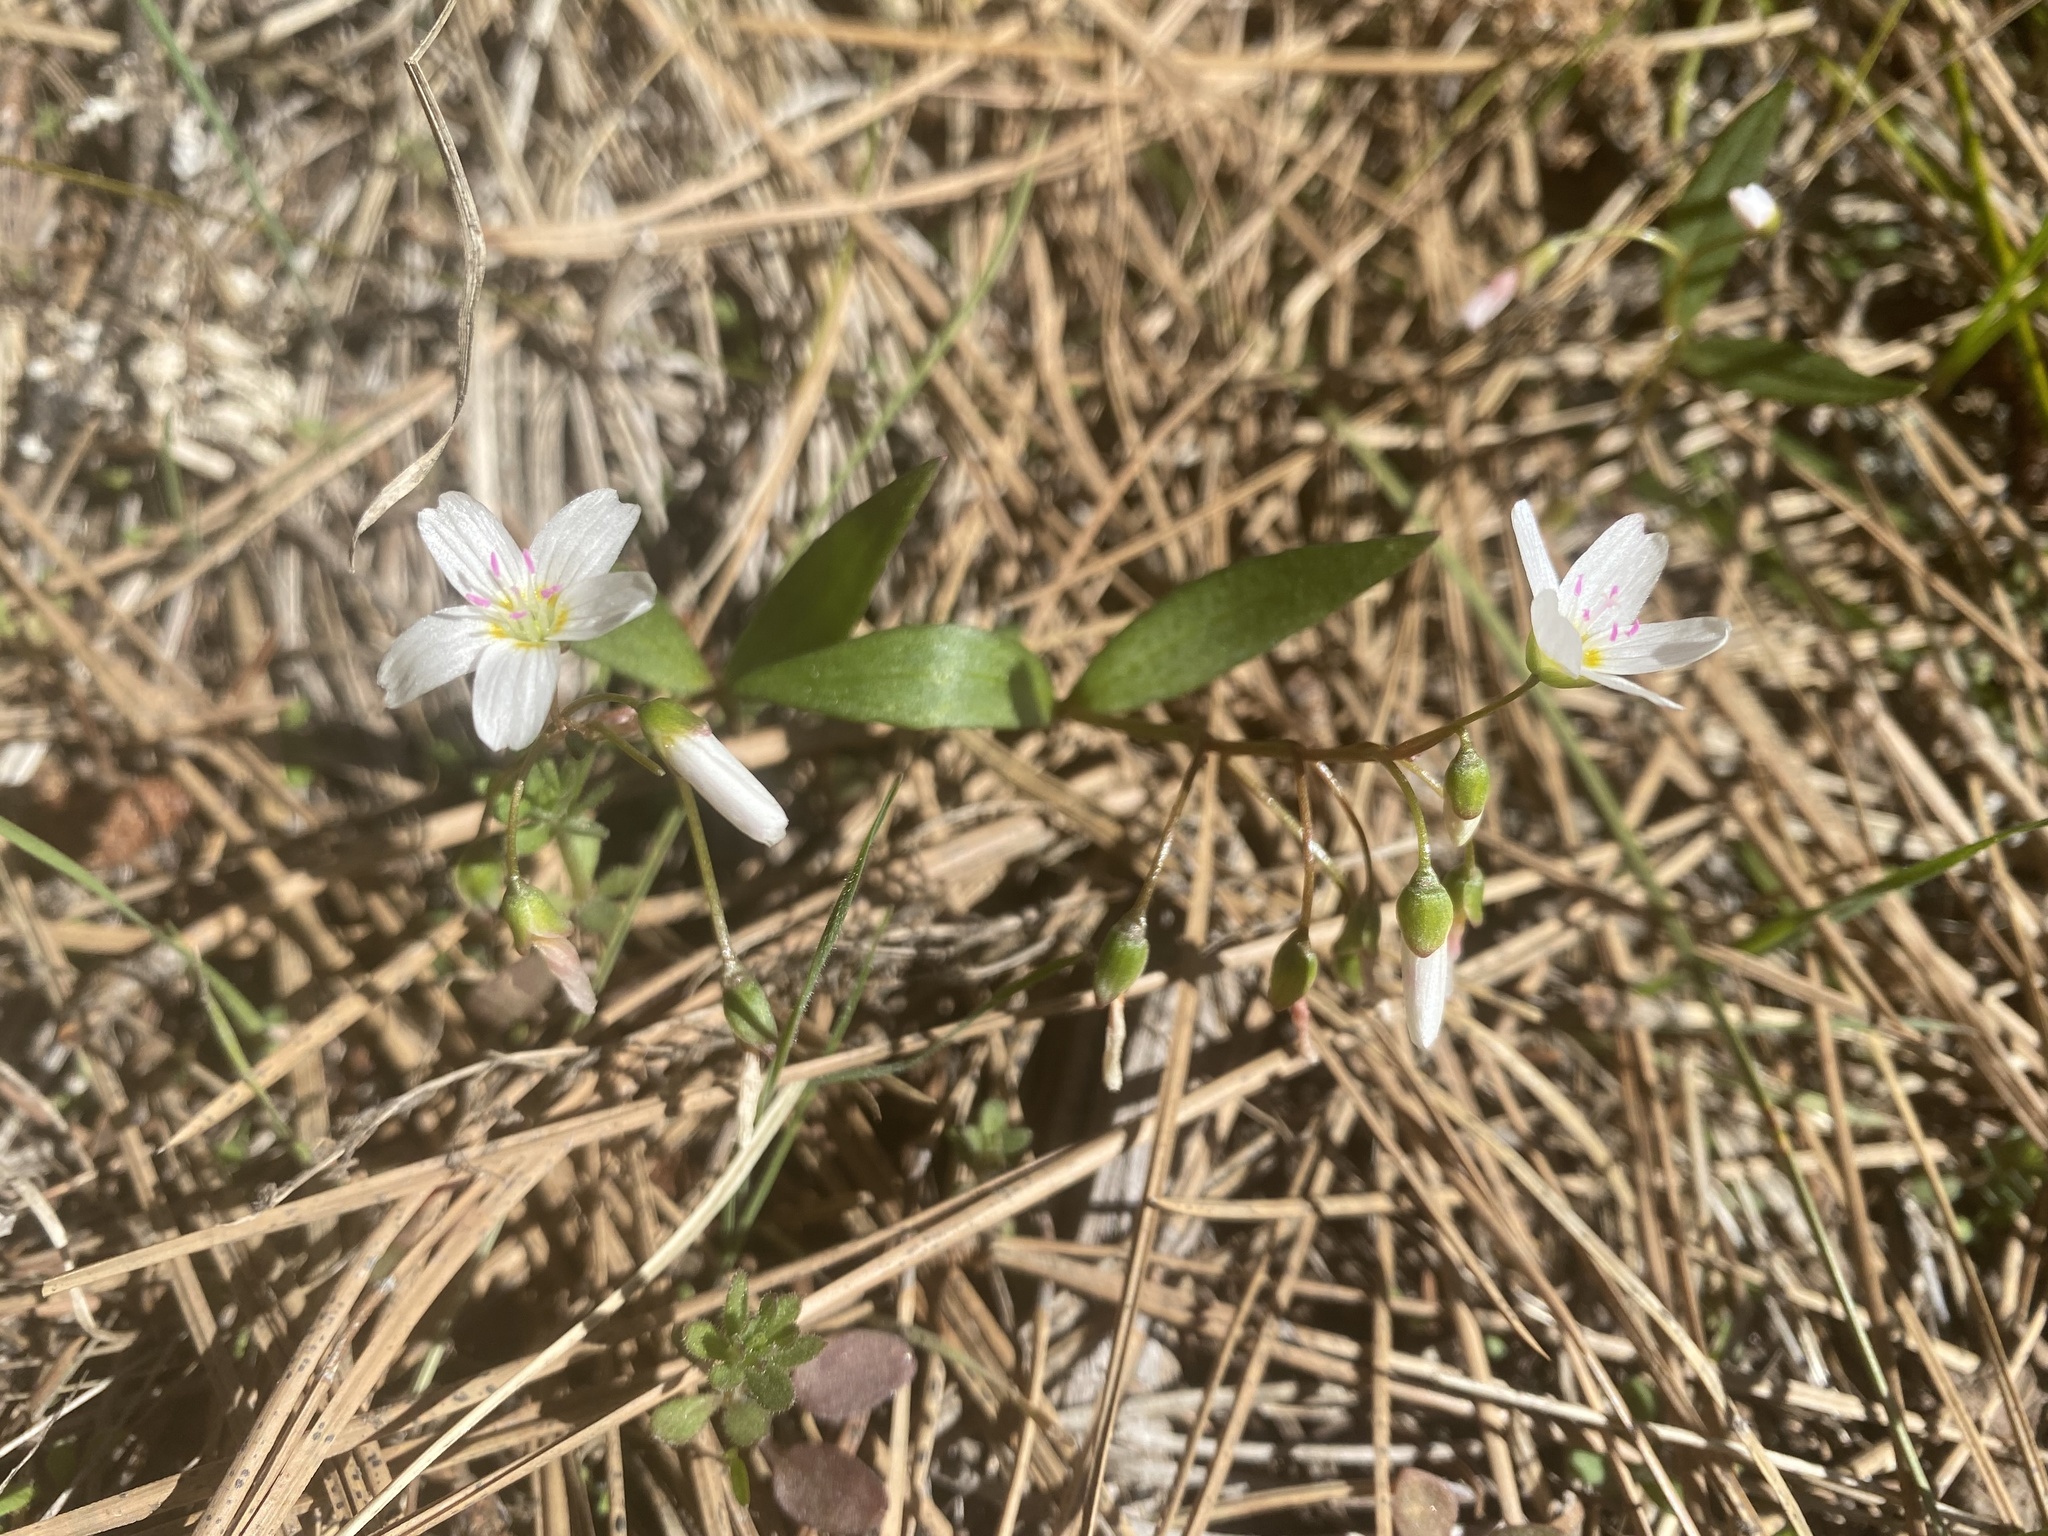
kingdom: Plantae
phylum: Tracheophyta
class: Magnoliopsida
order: Caryophyllales
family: Montiaceae
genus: Claytonia
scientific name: Claytonia lanceolata
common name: Western spring-beauty
